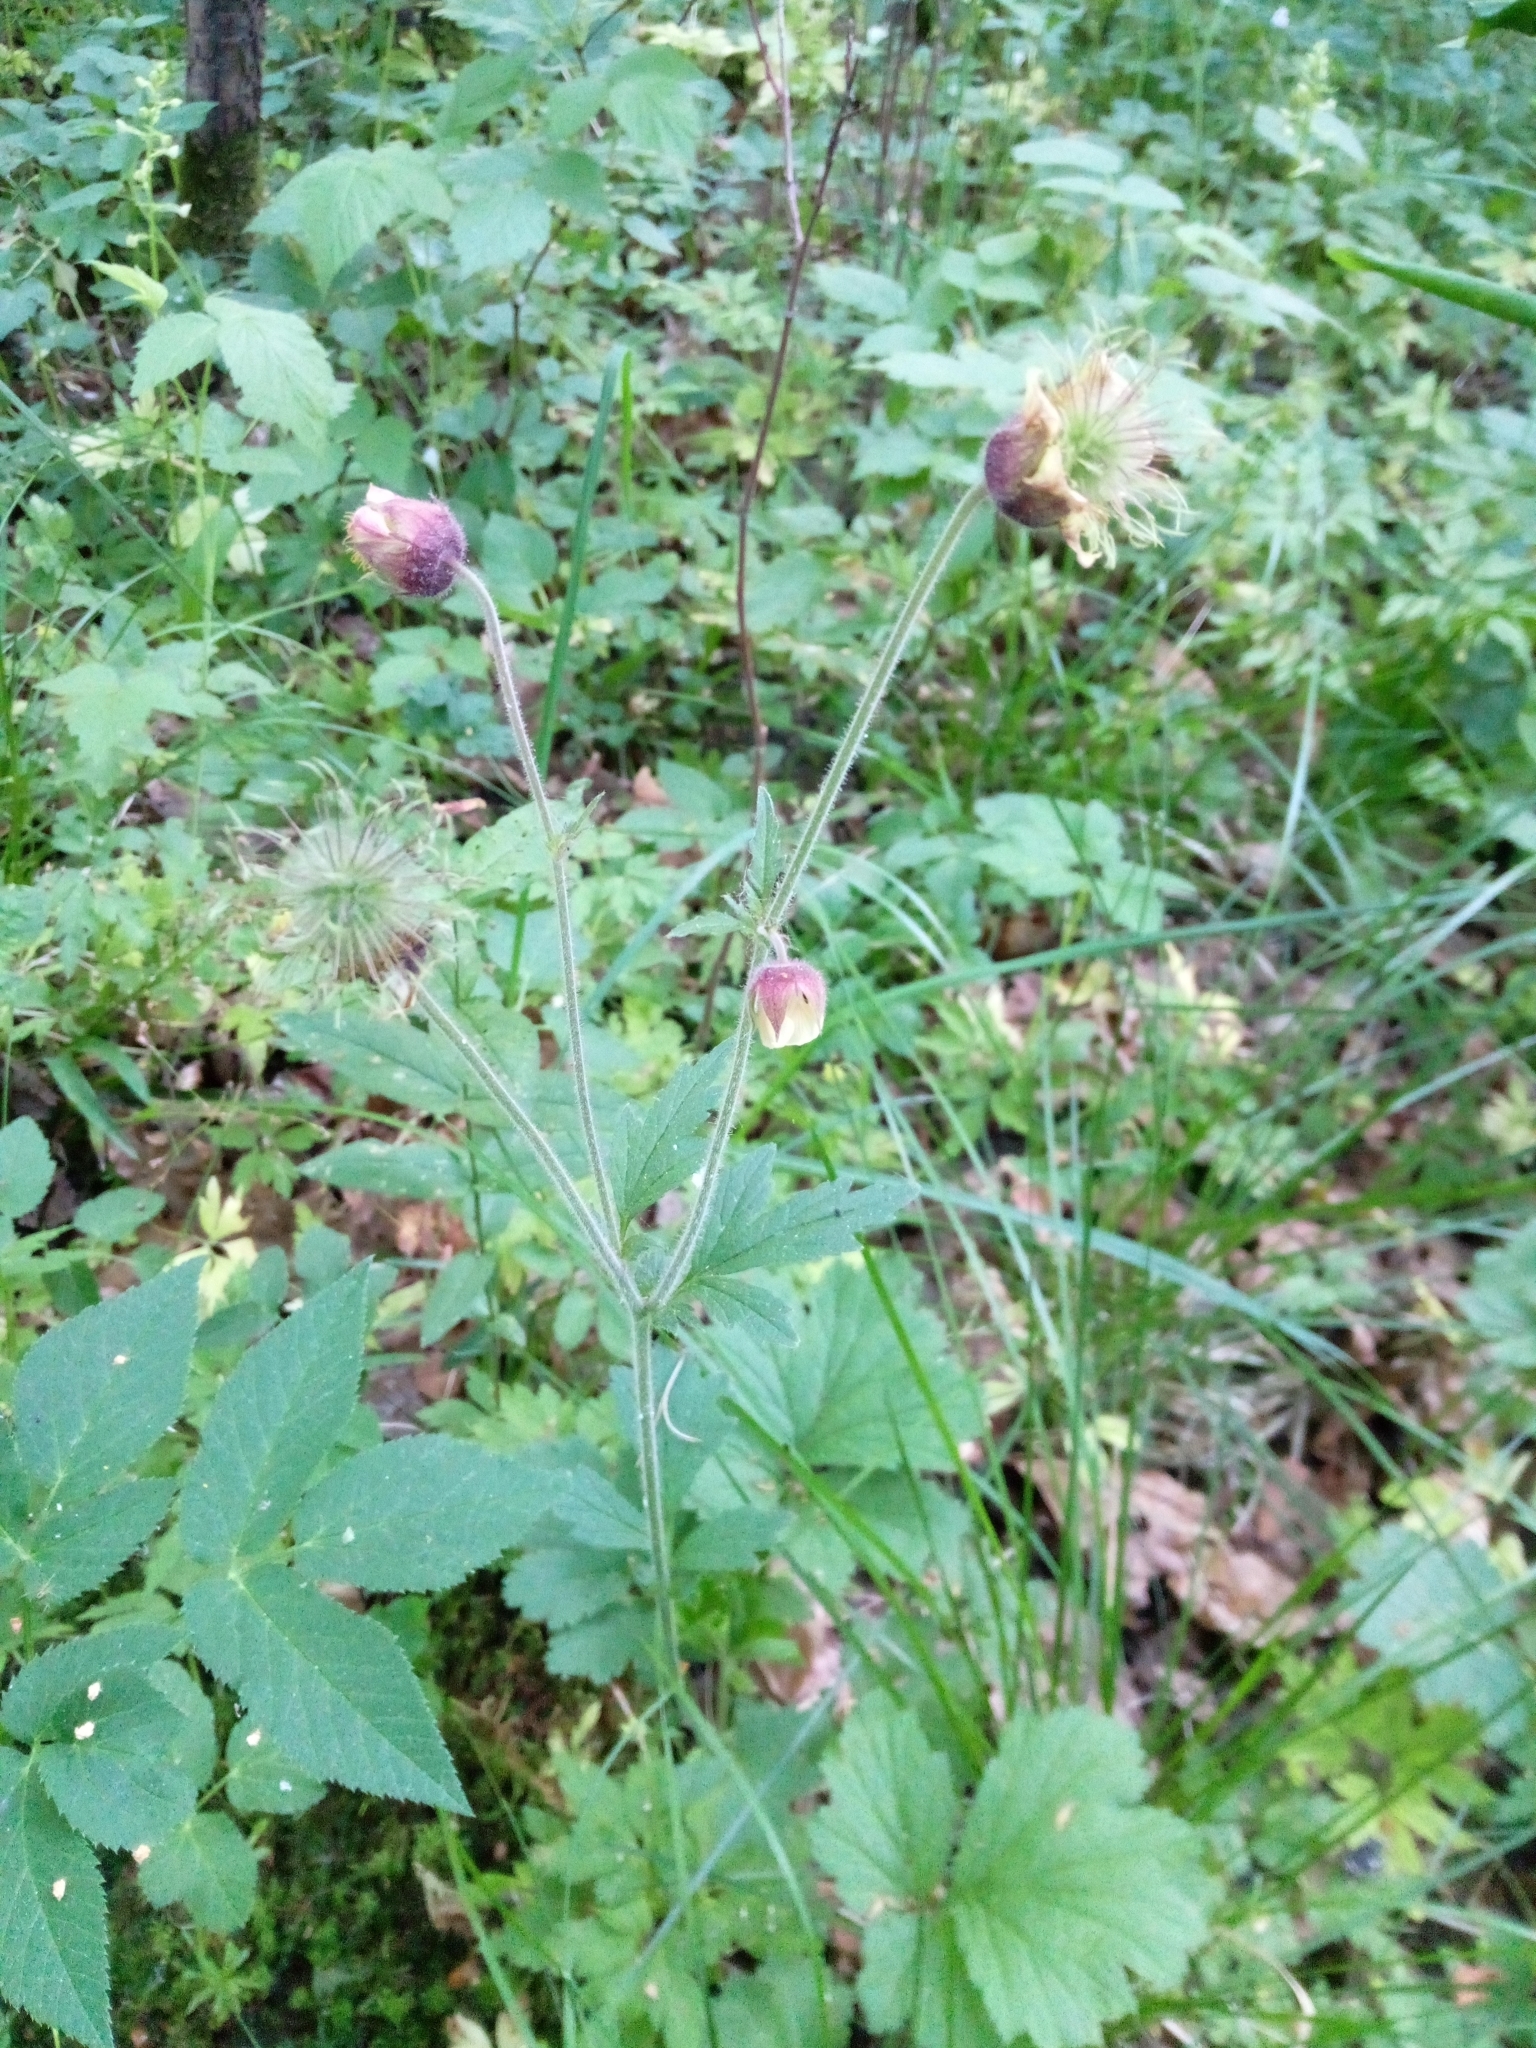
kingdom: Plantae
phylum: Tracheophyta
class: Magnoliopsida
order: Rosales
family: Rosaceae
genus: Geum
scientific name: Geum rivale
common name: Water avens
